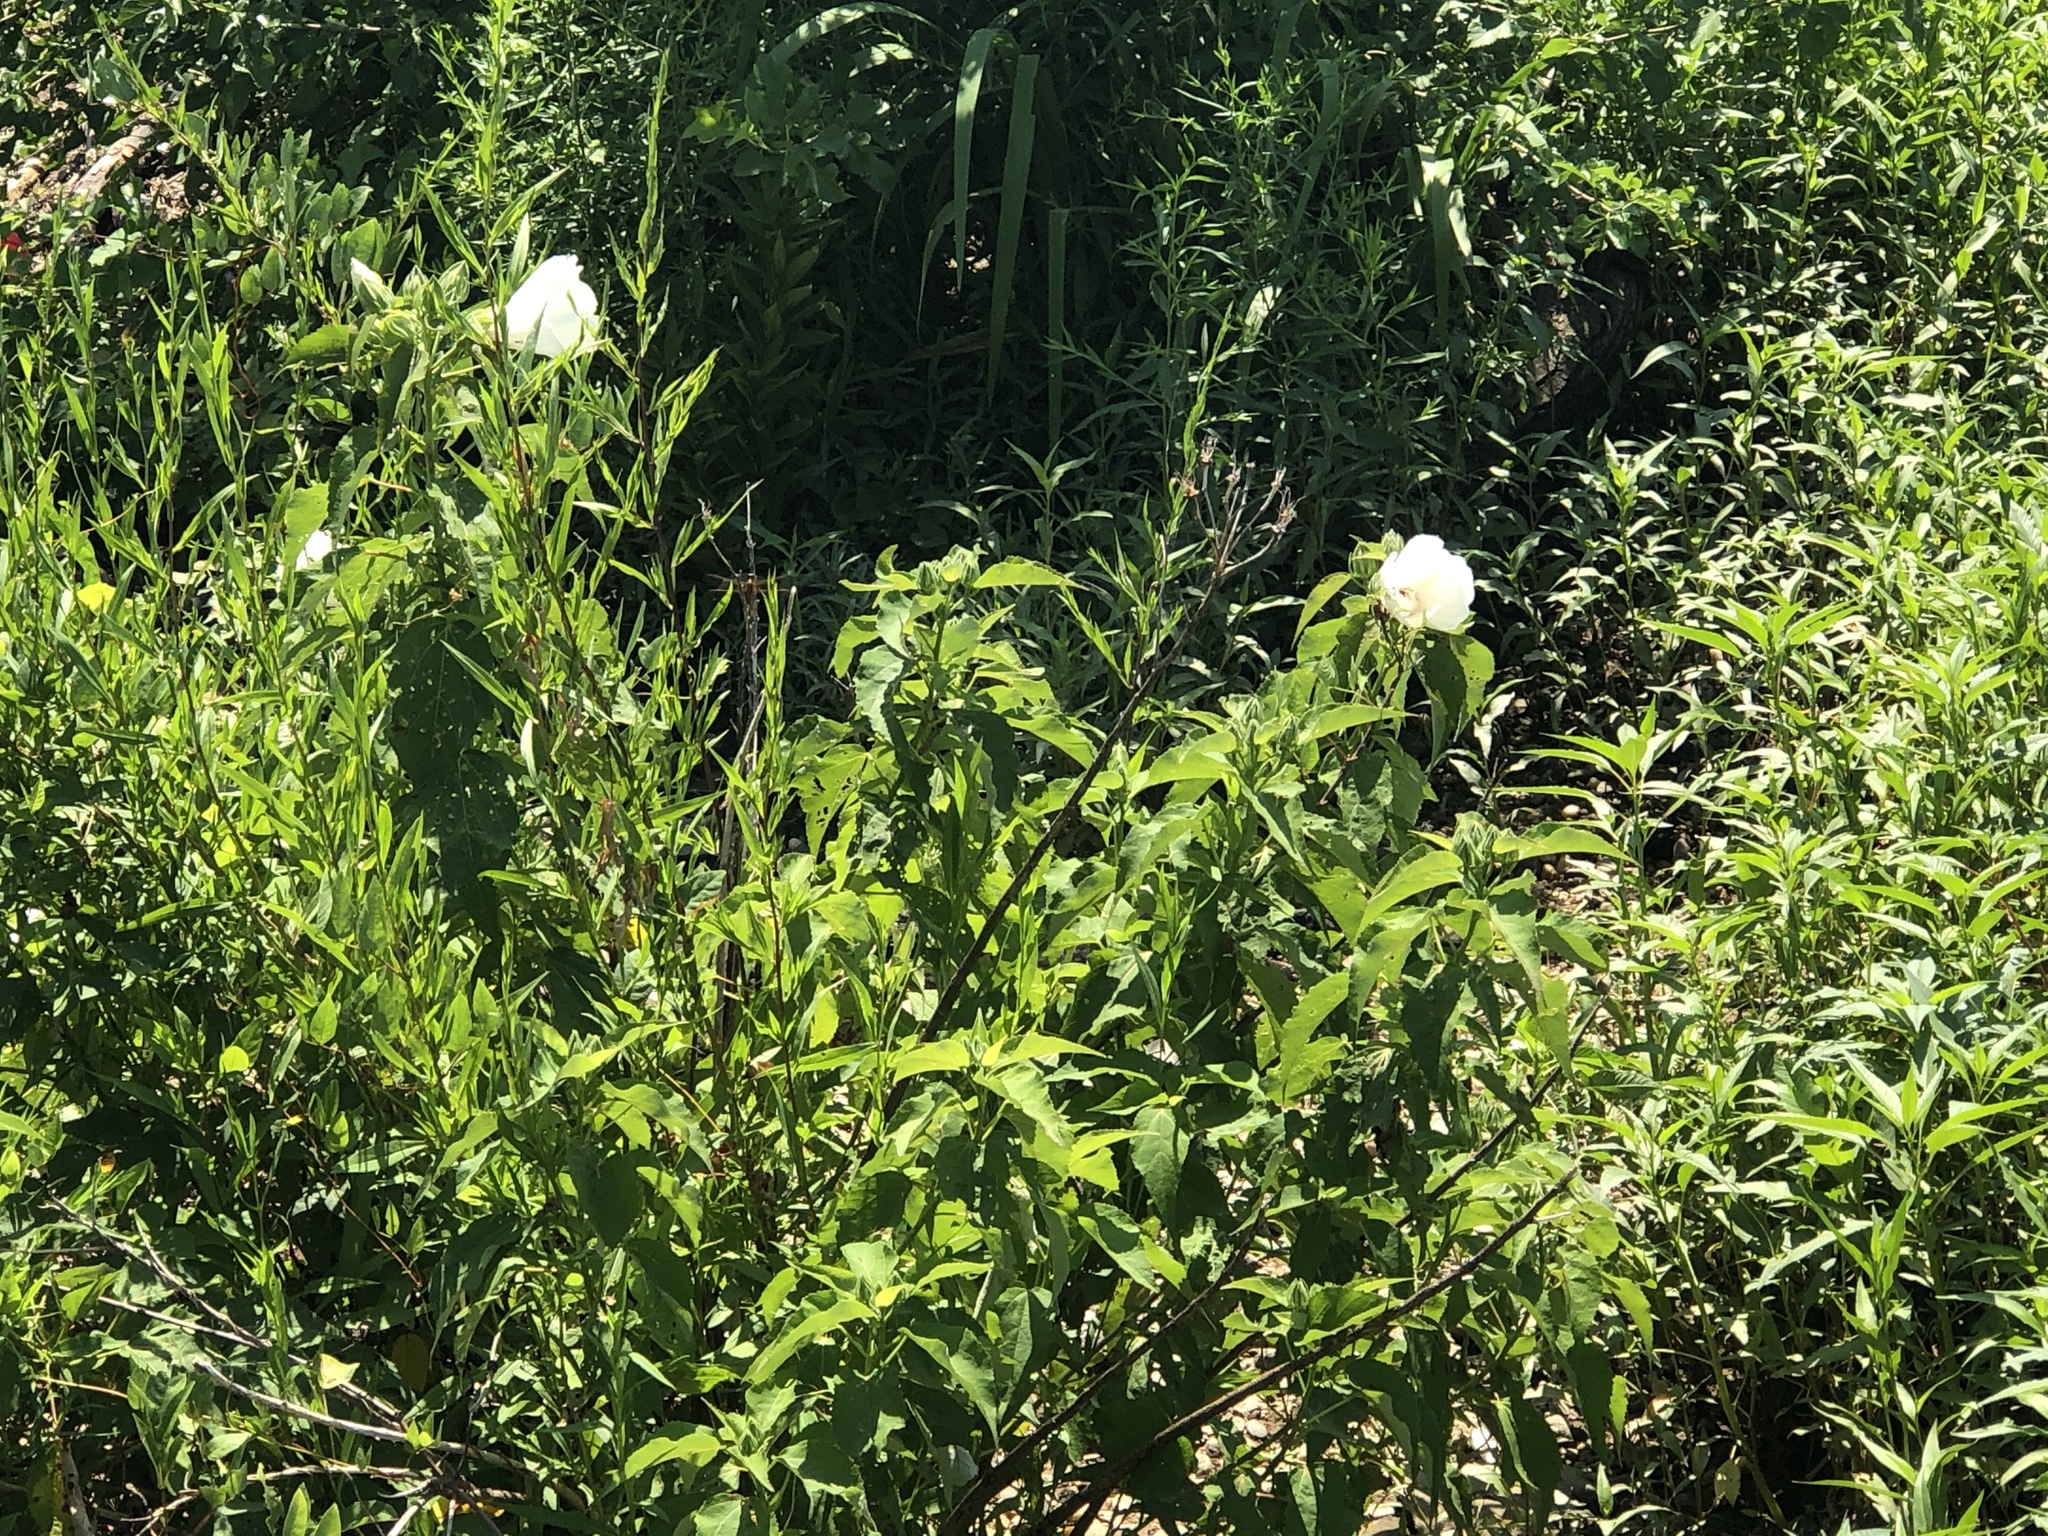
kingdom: Plantae
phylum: Tracheophyta
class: Magnoliopsida
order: Malvales
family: Malvaceae
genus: Hibiscus
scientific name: Hibiscus moscheutos
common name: Common rose-mallow
